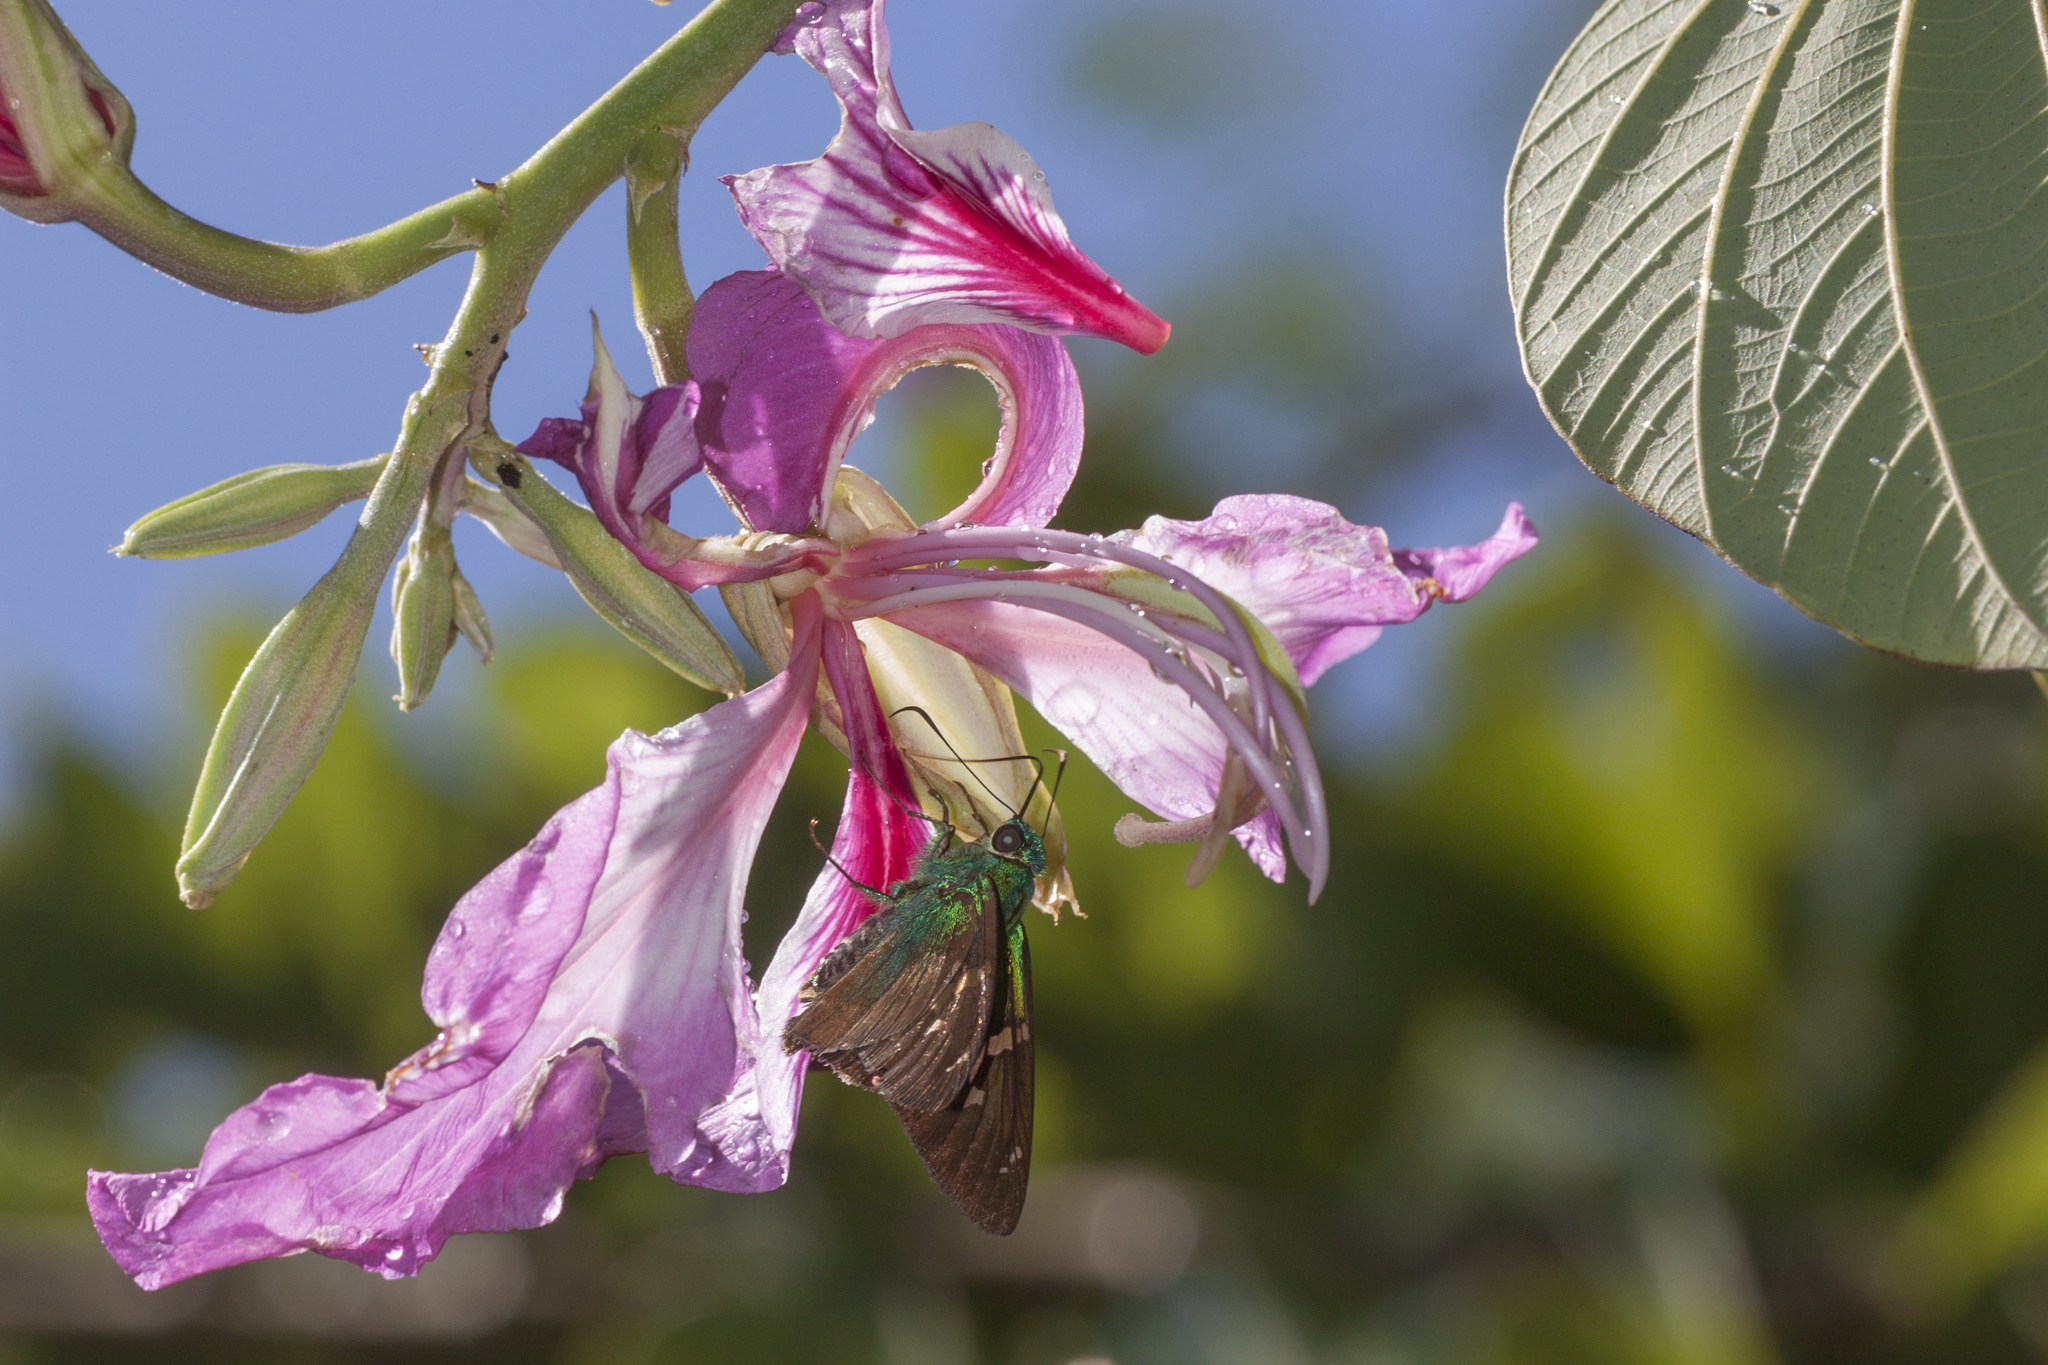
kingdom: Animalia
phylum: Arthropoda
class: Insecta
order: Lepidoptera
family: Hesperiidae
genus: Astraptes
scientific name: Astraptes talus
